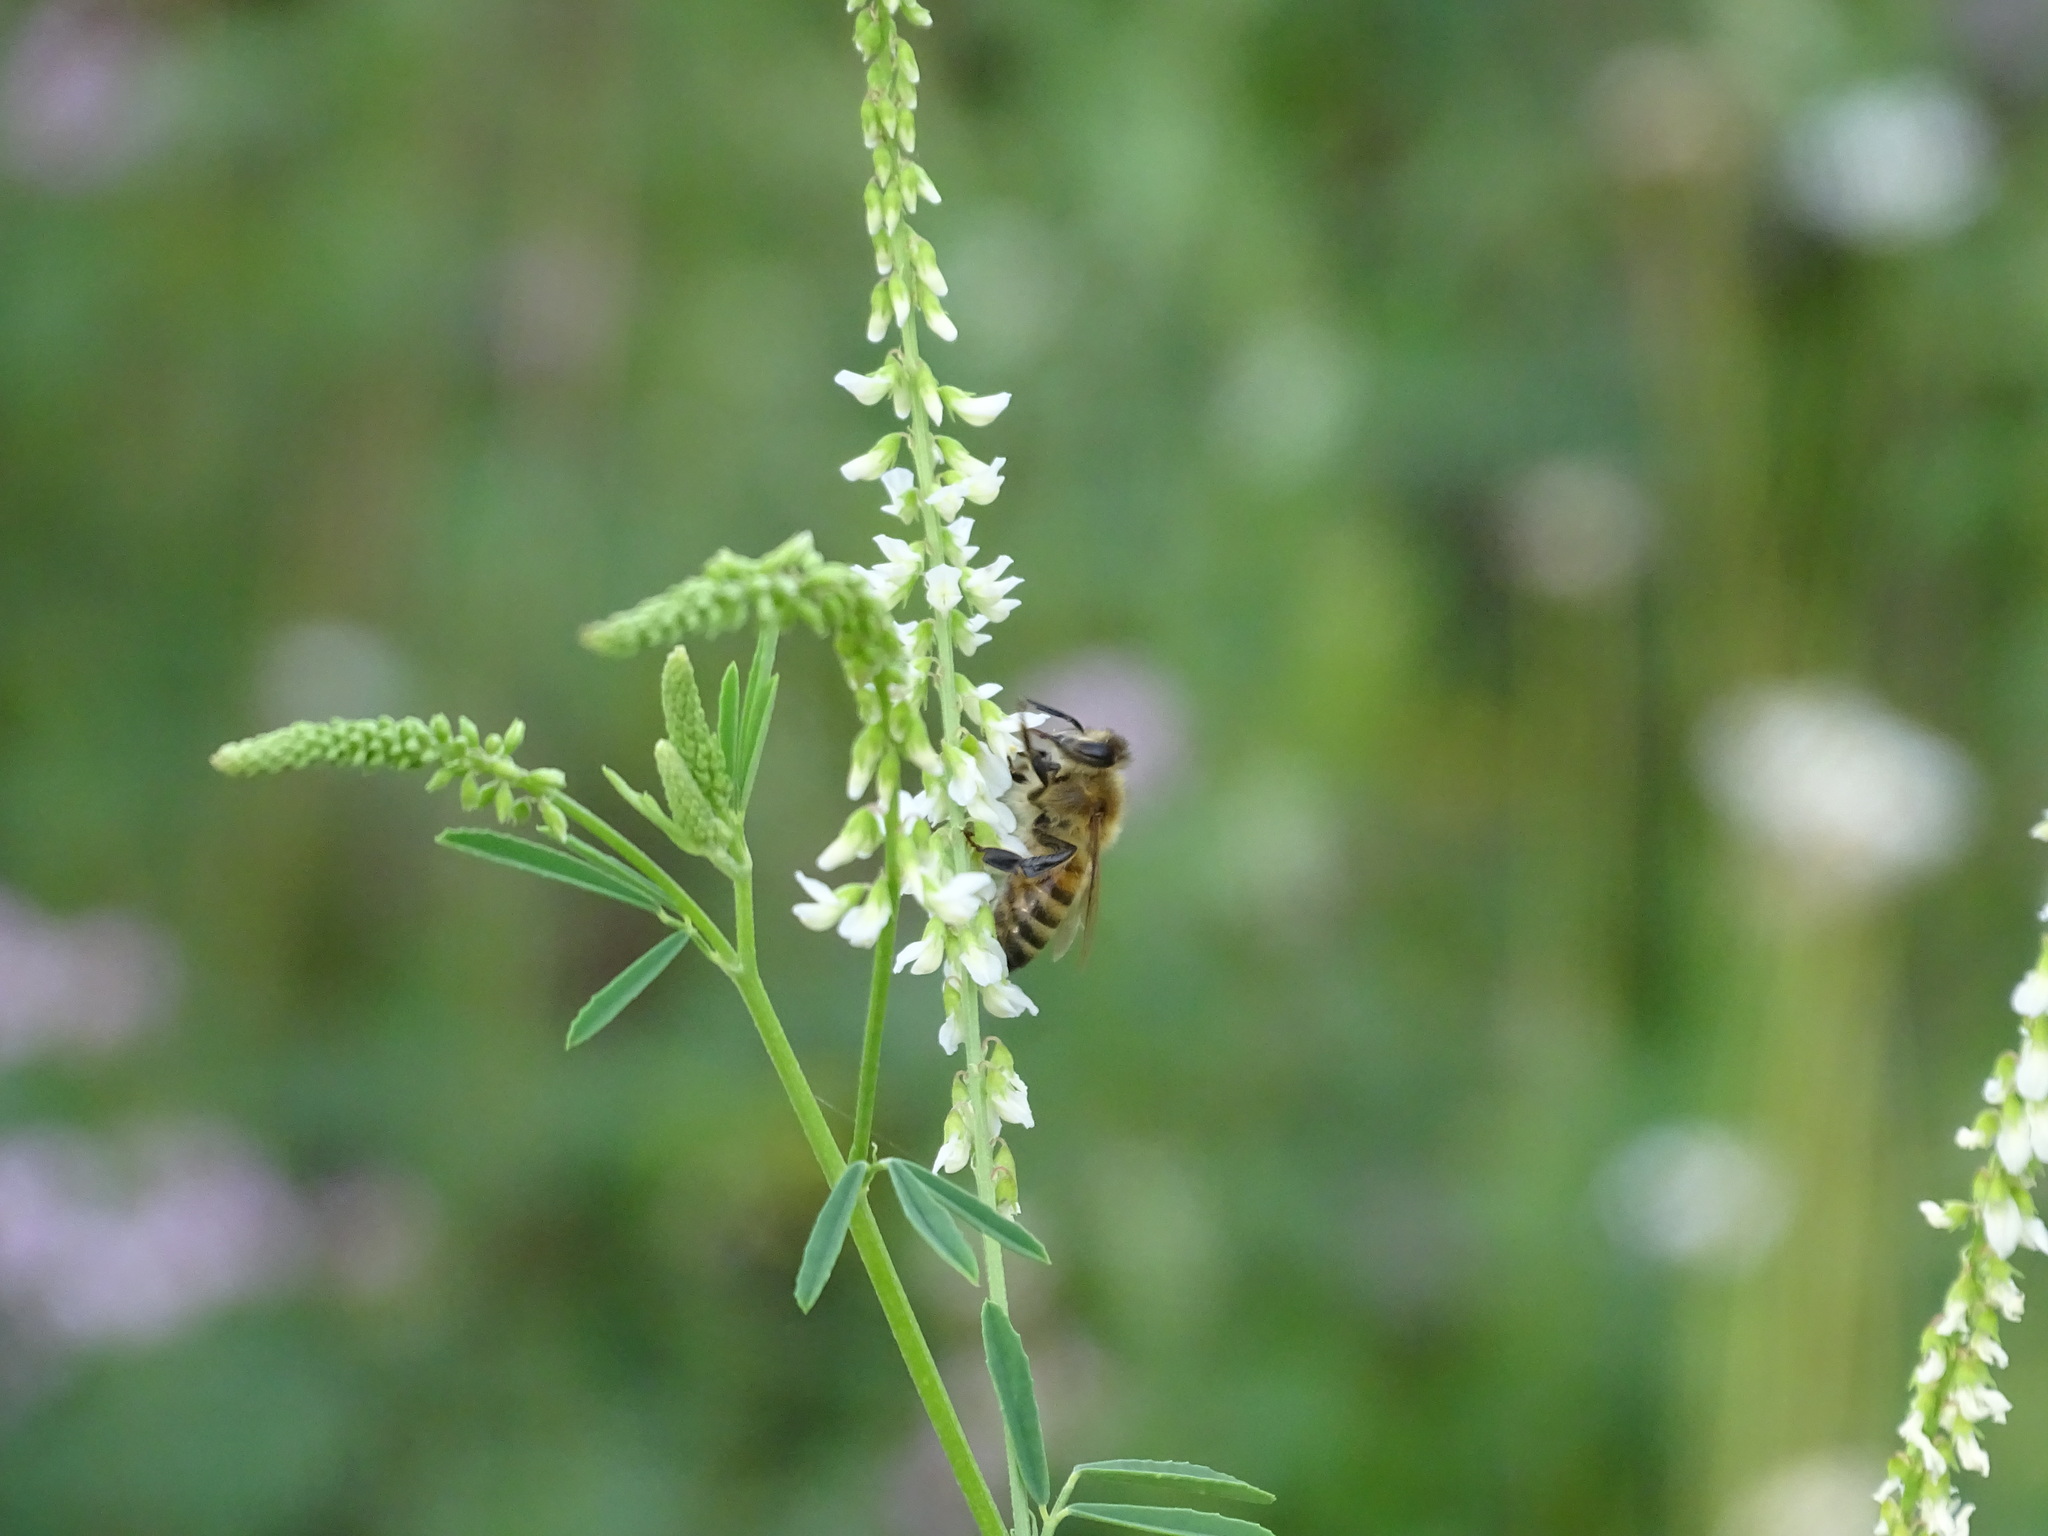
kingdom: Animalia
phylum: Arthropoda
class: Insecta
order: Hymenoptera
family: Apidae
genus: Apis
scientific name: Apis mellifera
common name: Honey bee
